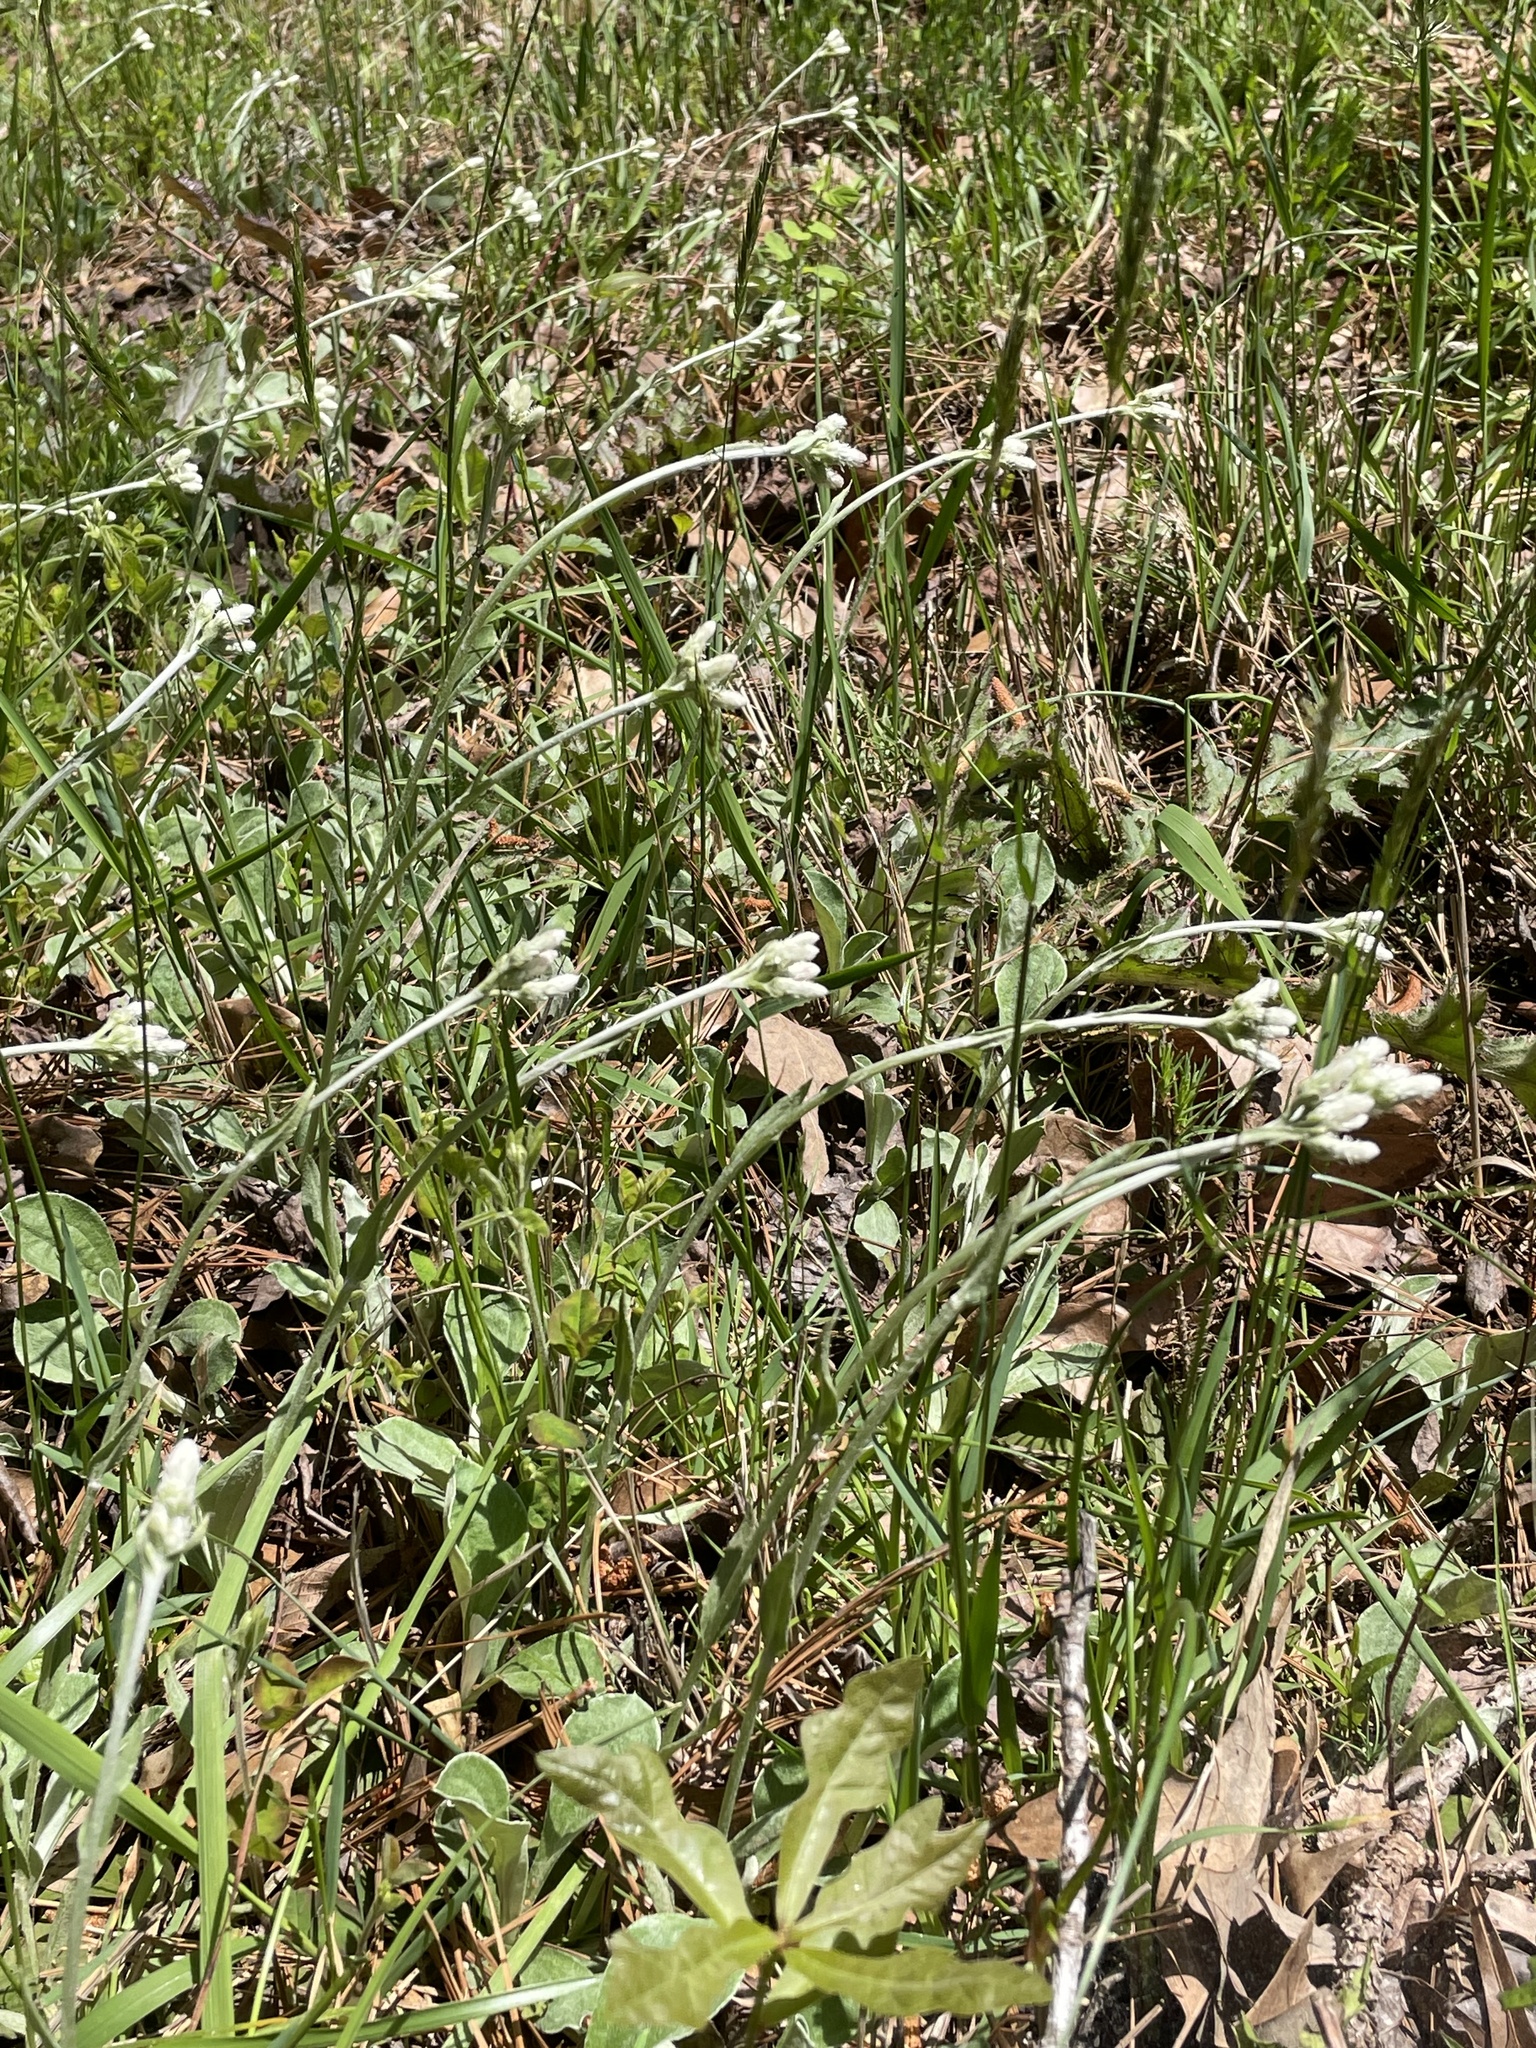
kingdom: Plantae
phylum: Tracheophyta
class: Magnoliopsida
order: Asterales
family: Asteraceae
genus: Antennaria
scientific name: Antennaria parlinii
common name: Parlin's pussytoes
